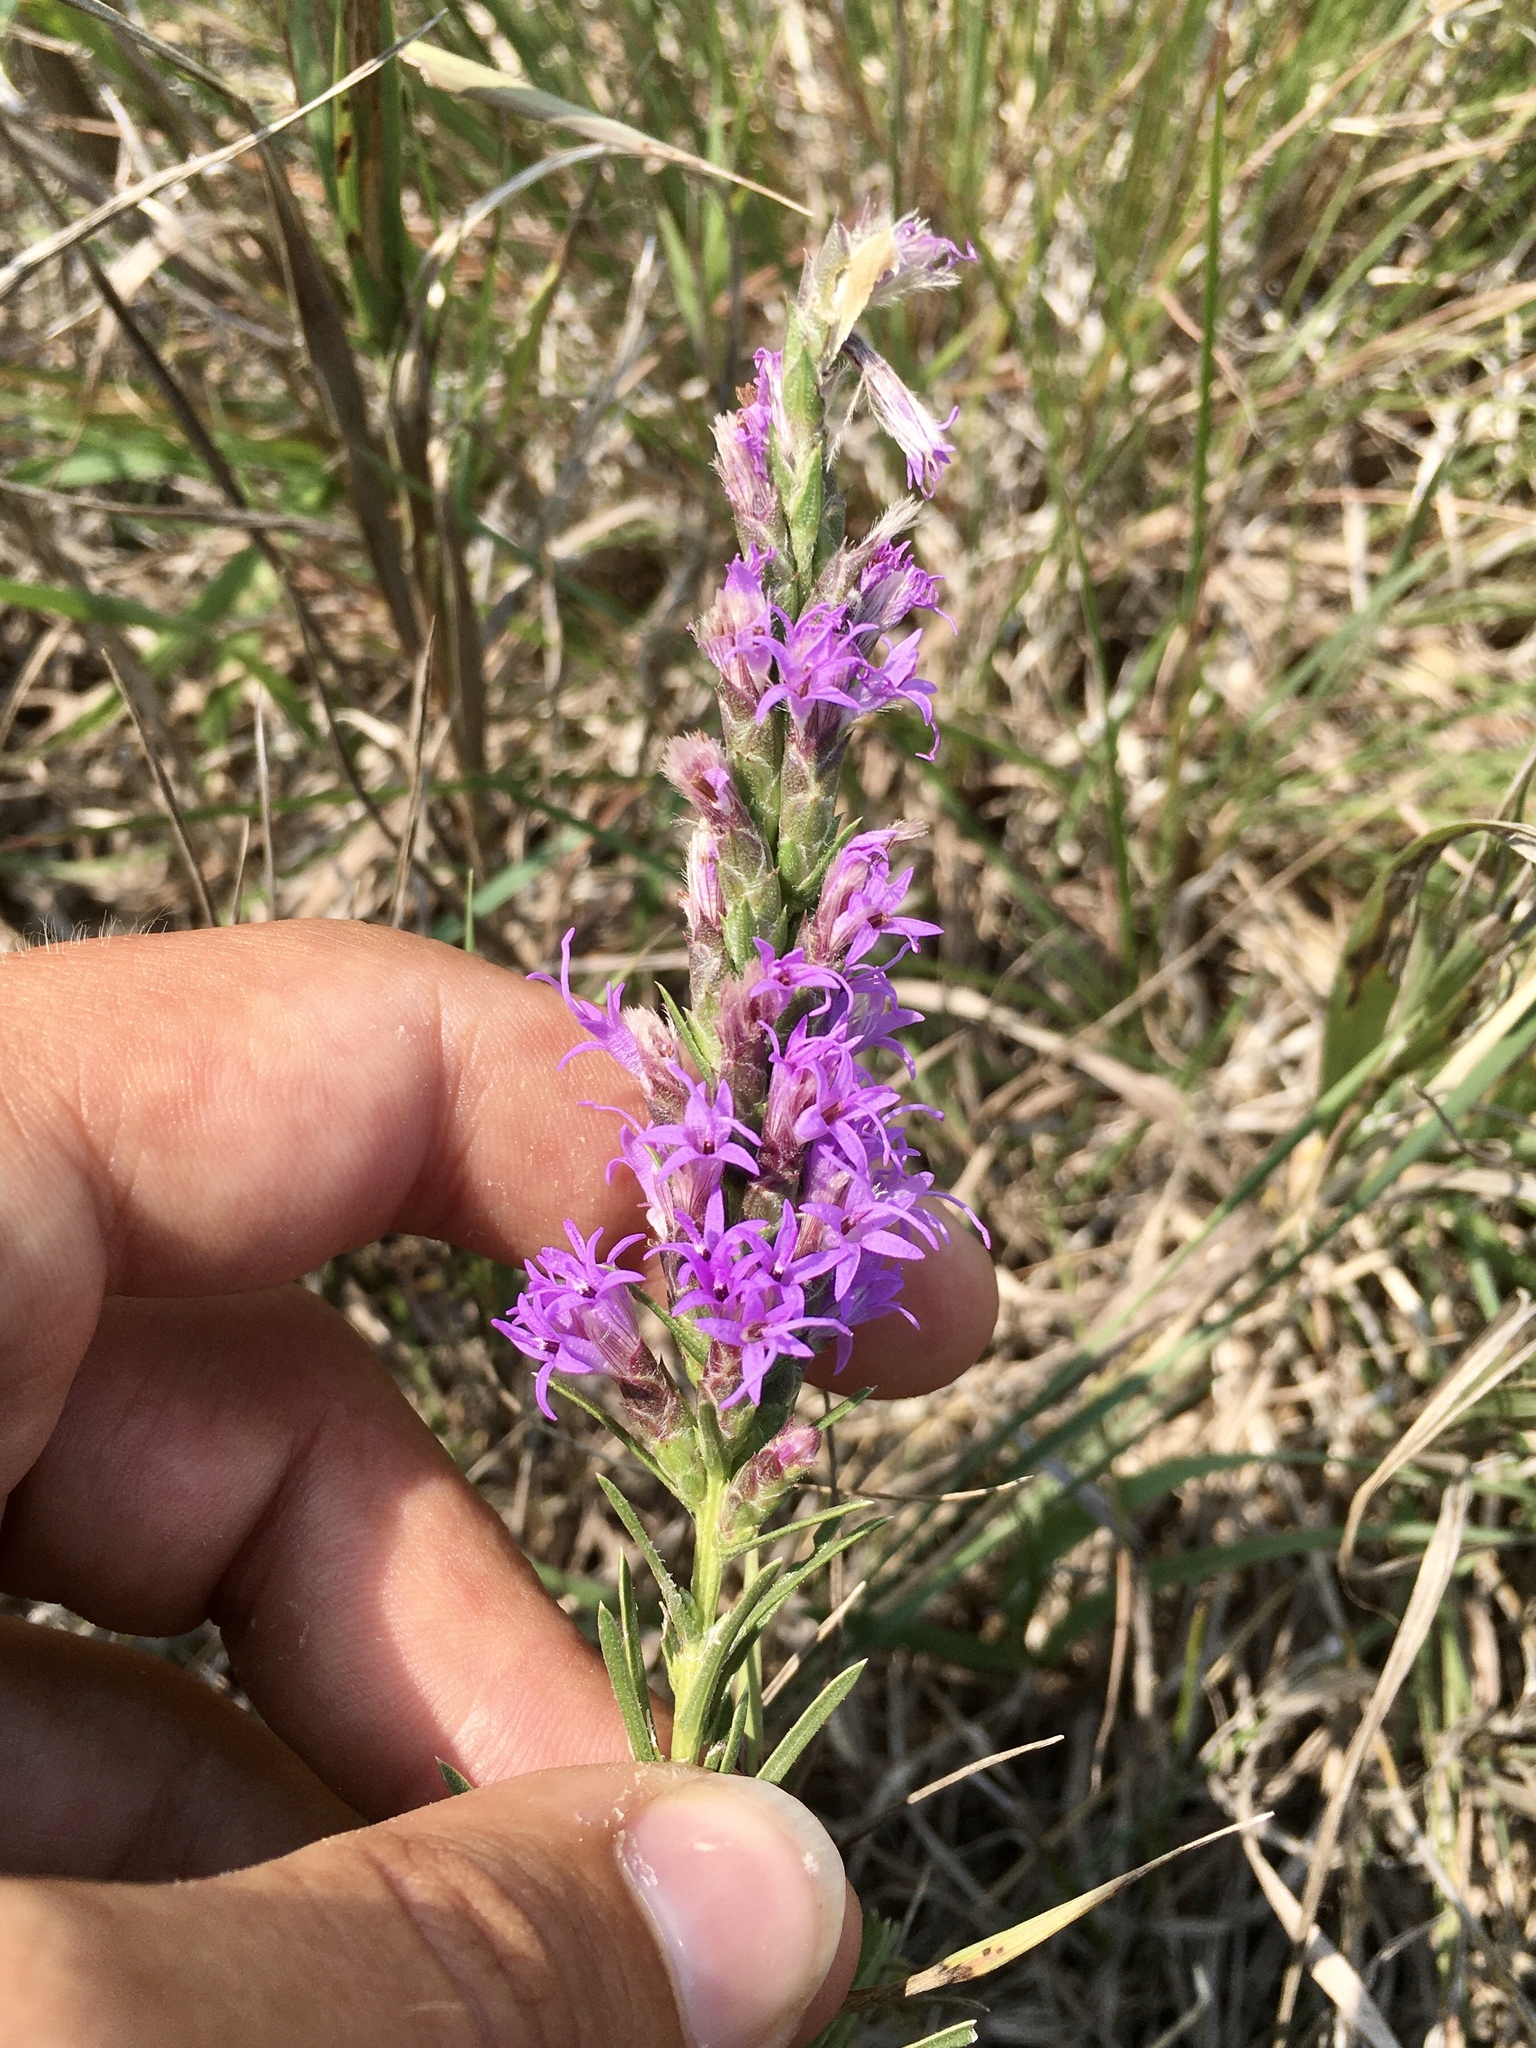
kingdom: Plantae
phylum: Tracheophyta
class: Magnoliopsida
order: Asterales
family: Asteraceae
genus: Liatris
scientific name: Liatris punctata
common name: Dotted gayfeather
